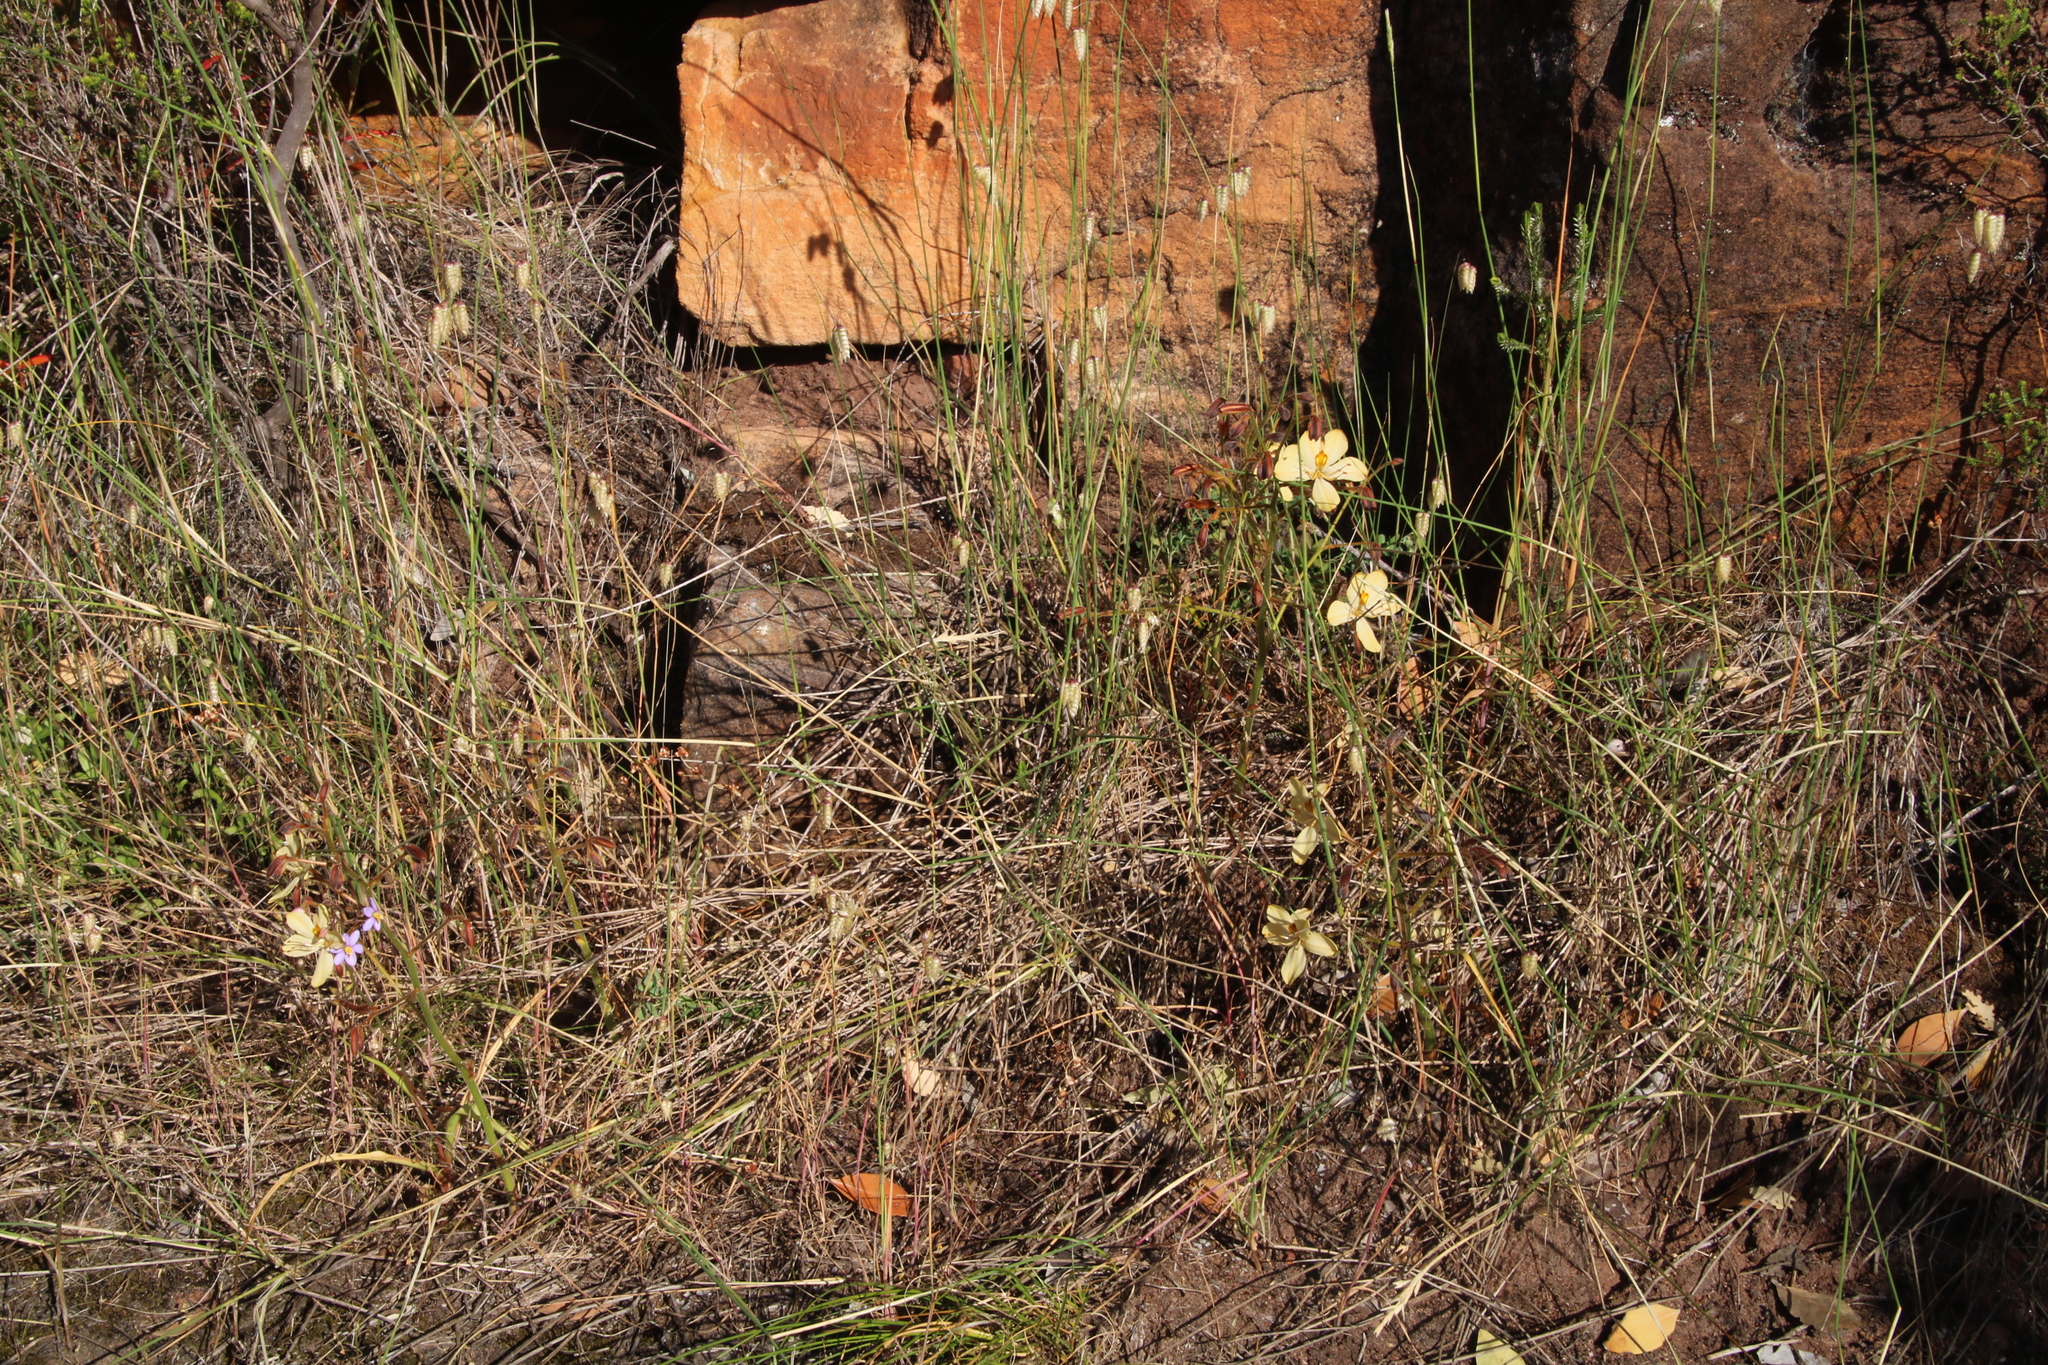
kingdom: Plantae
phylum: Tracheophyta
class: Liliopsida
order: Commelinales
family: Haemodoraceae
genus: Wachendorfia
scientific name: Wachendorfia paniculata
